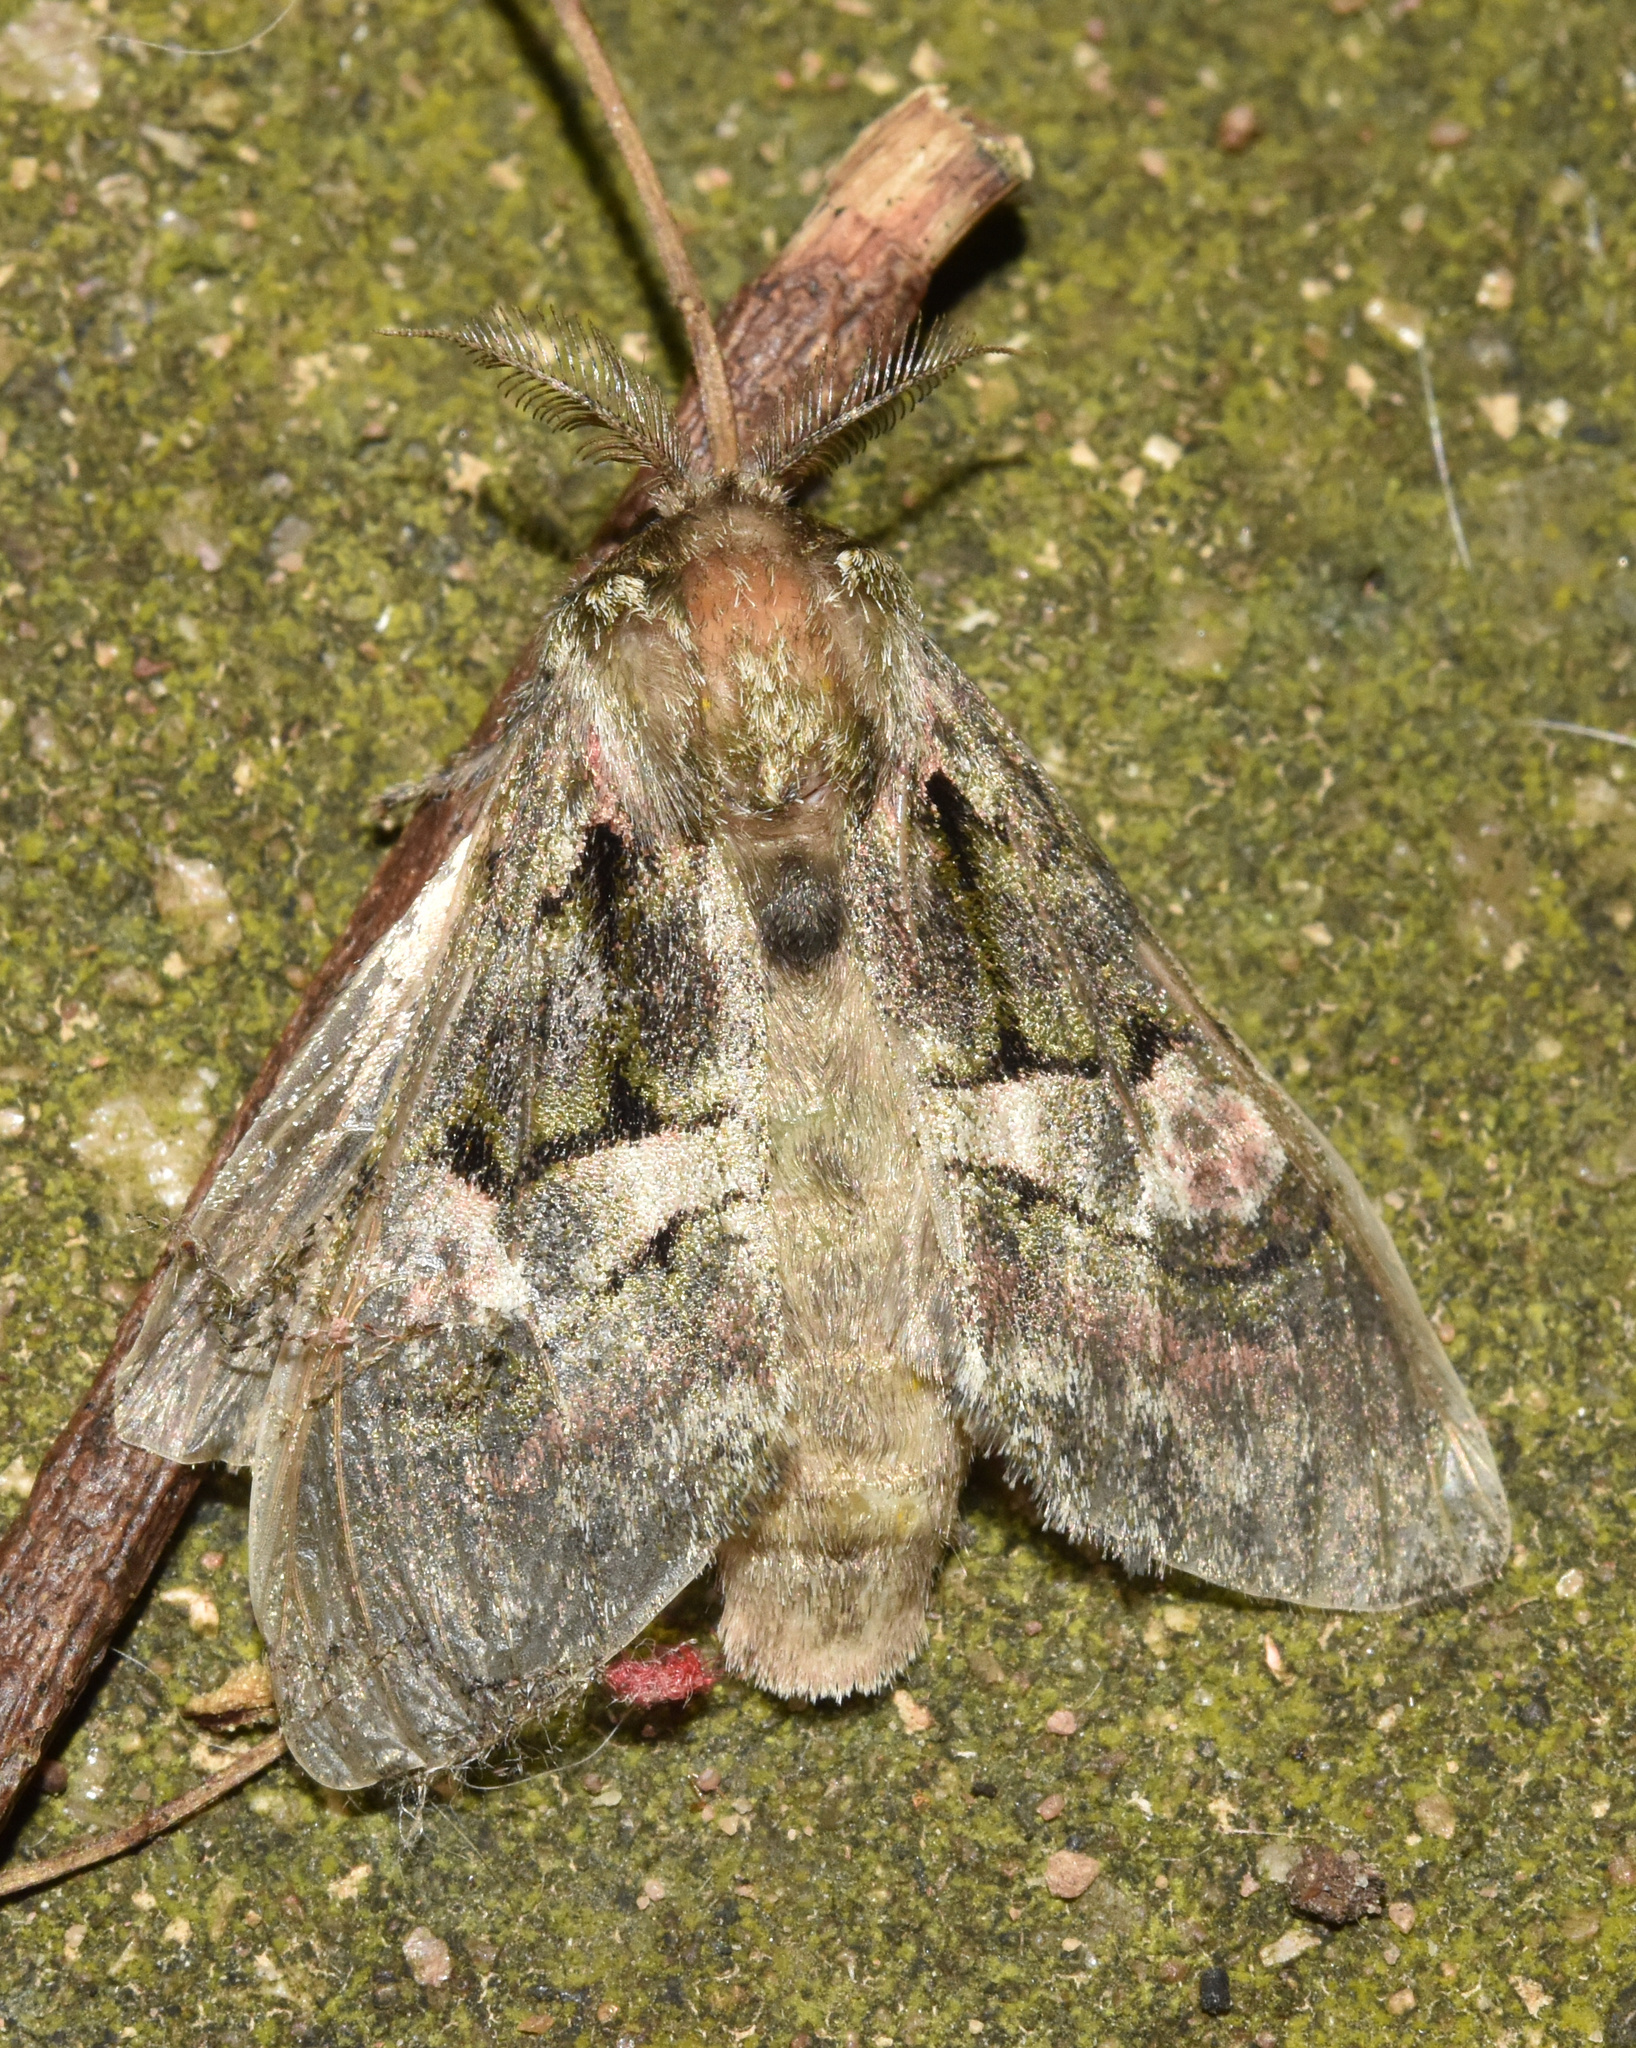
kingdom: Animalia
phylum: Arthropoda
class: Insecta
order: Lepidoptera
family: Notodontidae
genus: Rhenea
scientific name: Rhenea michii
